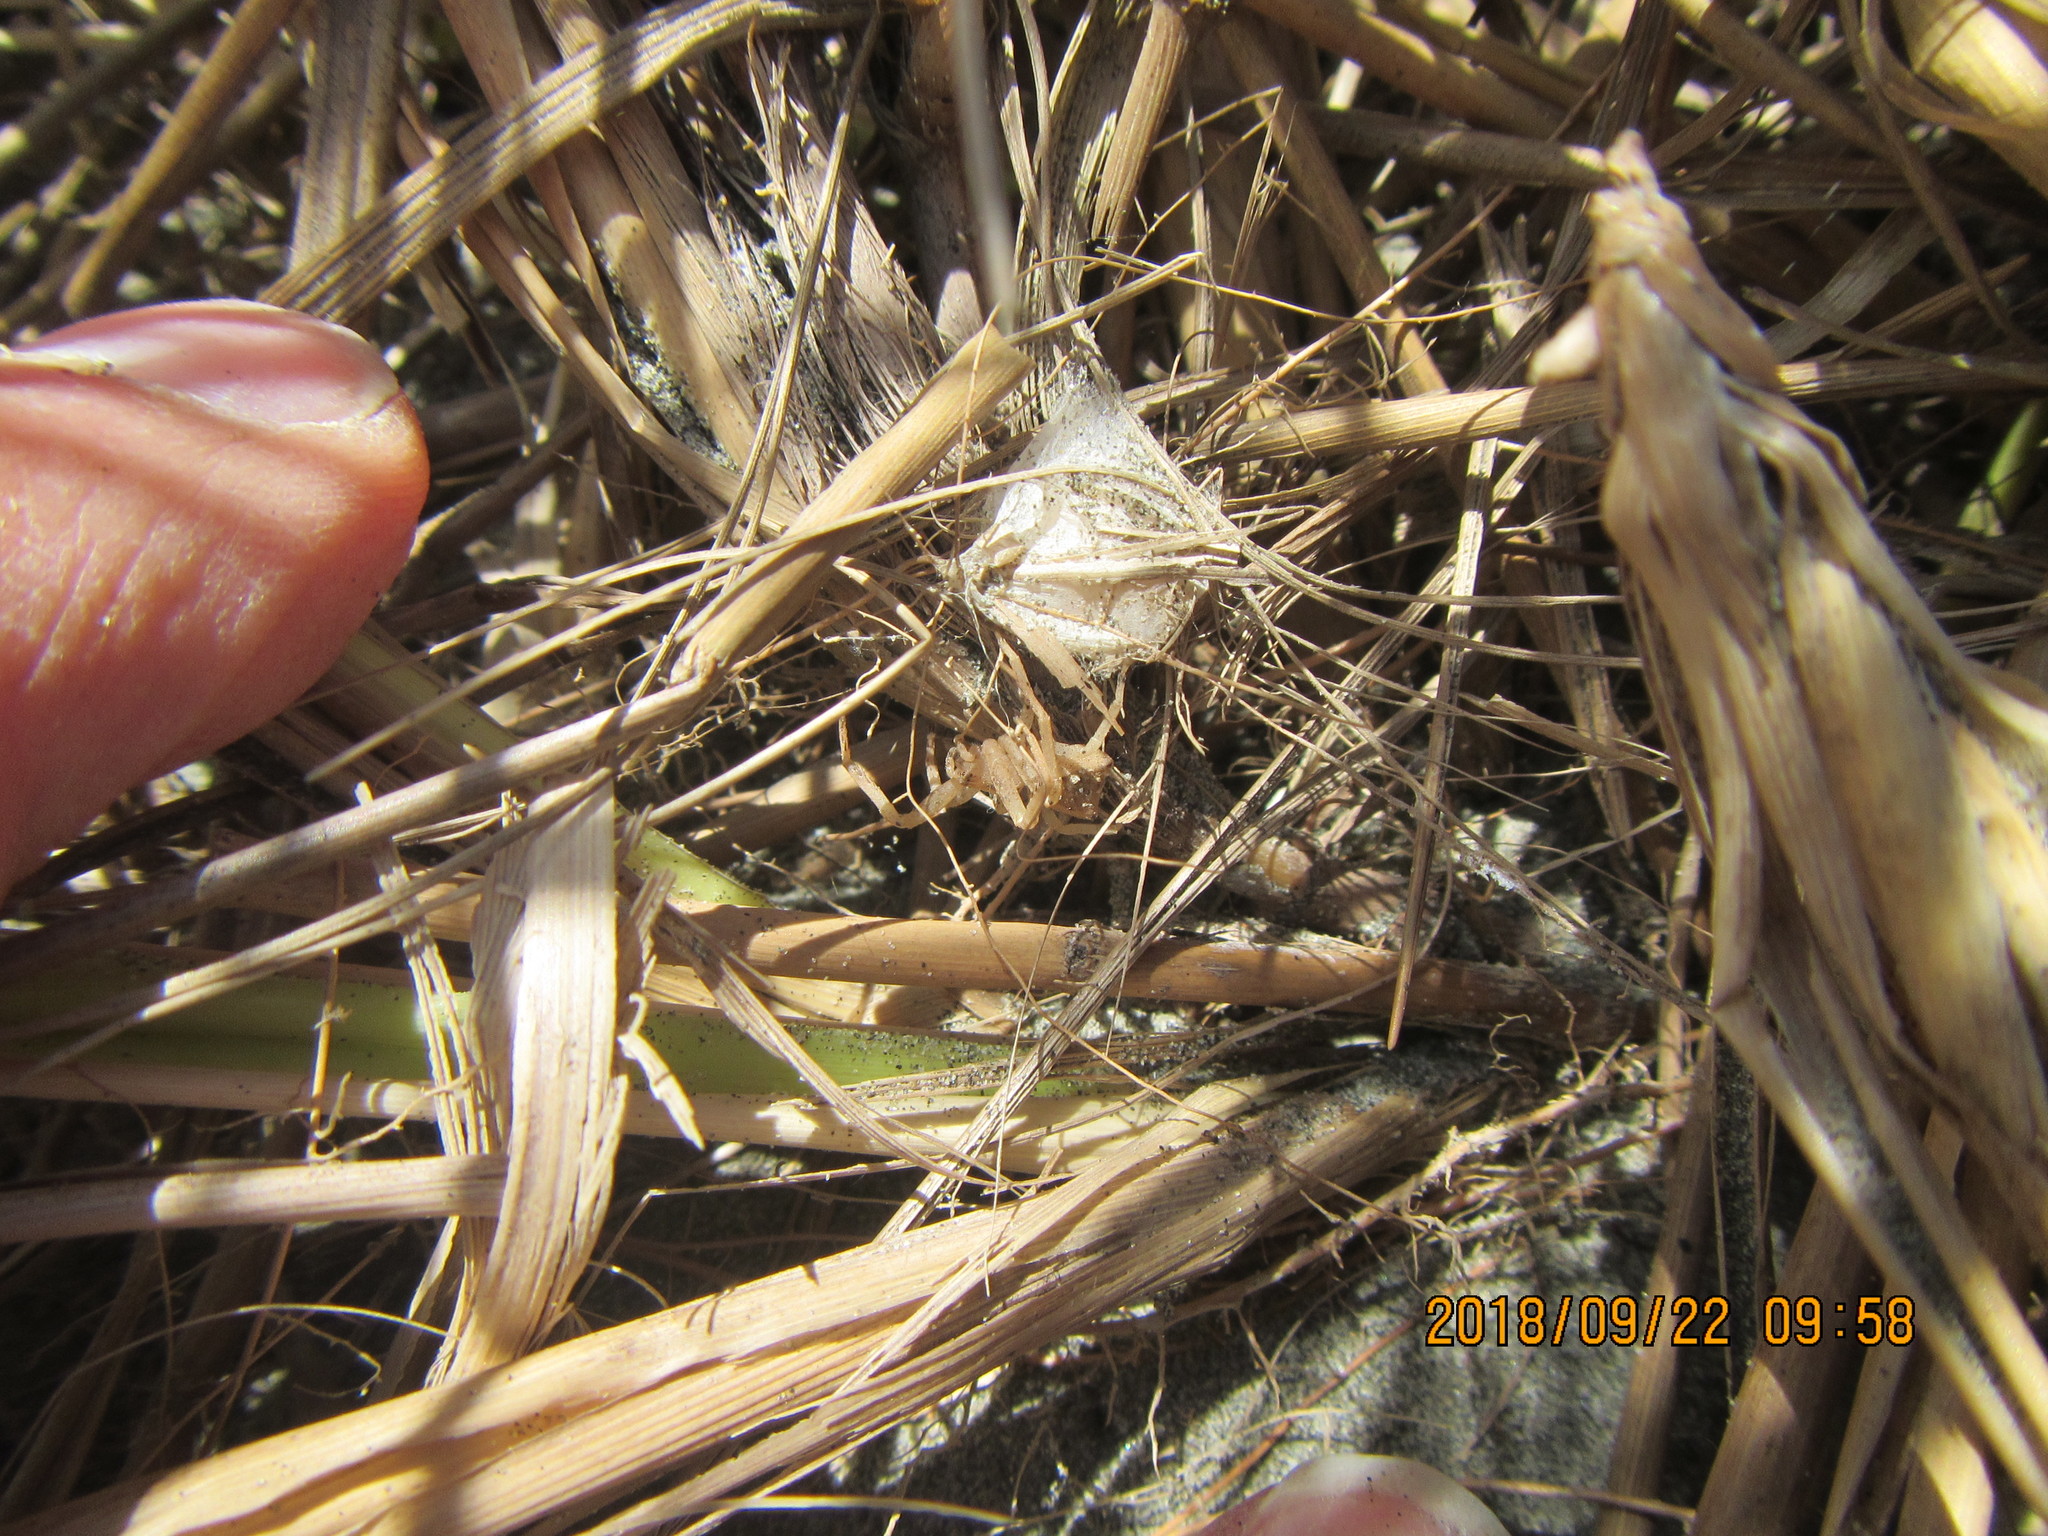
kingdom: Animalia
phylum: Arthropoda
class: Arachnida
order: Araneae
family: Thomisidae
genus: Sidymella
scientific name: Sidymella trapezia
